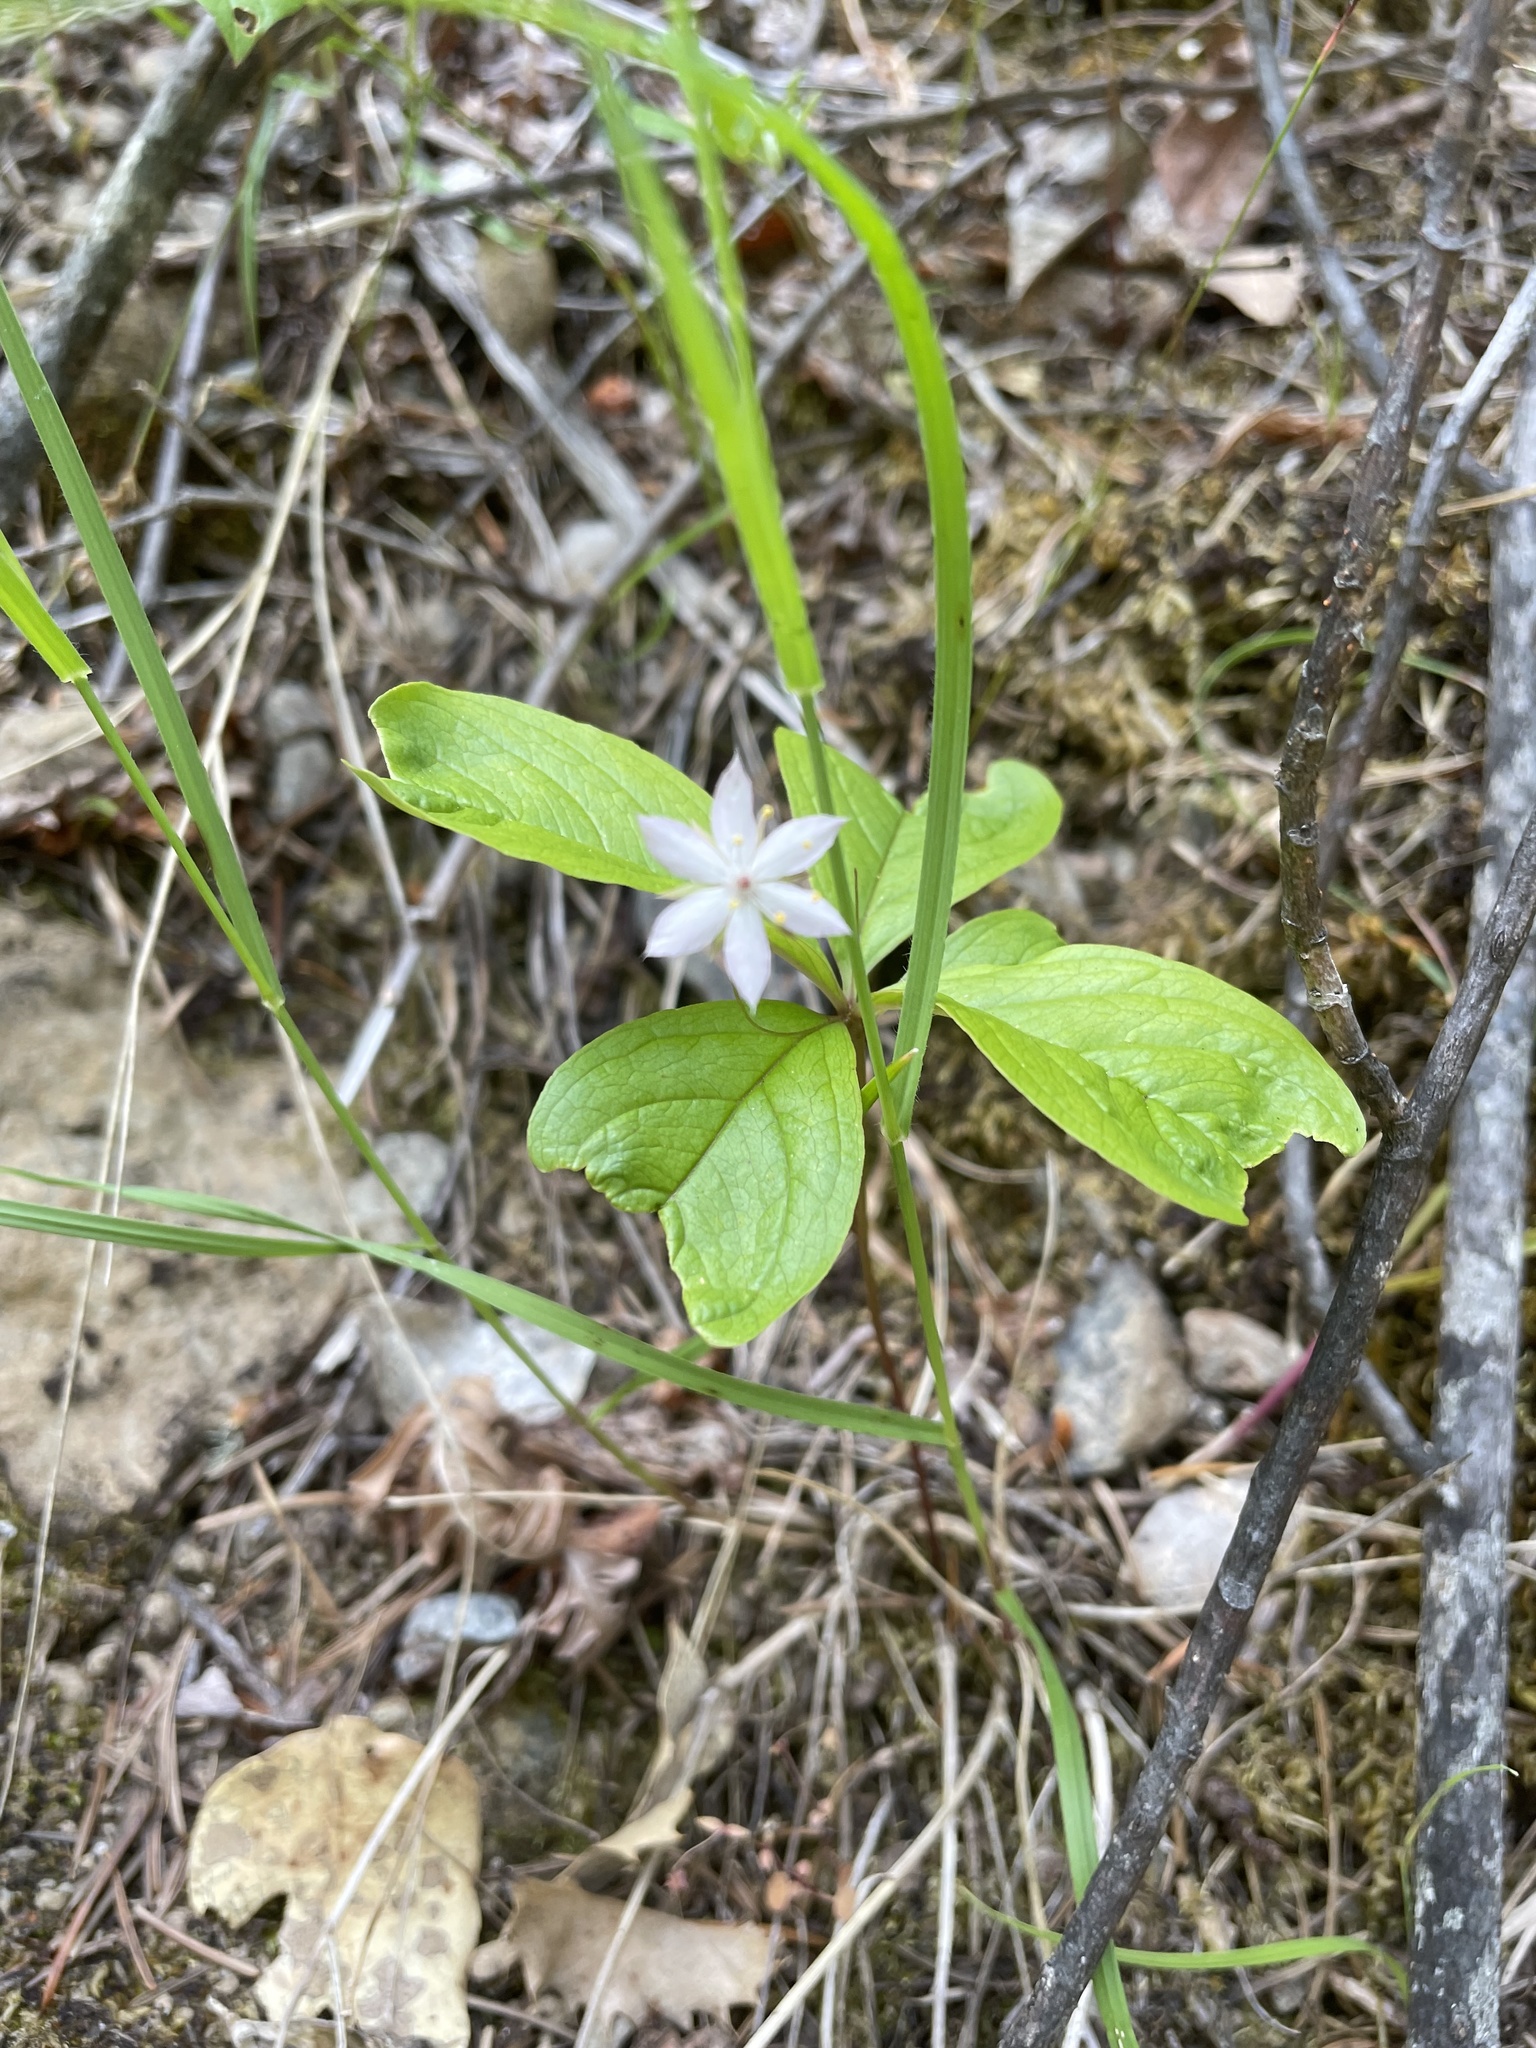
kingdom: Plantae
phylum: Tracheophyta
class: Magnoliopsida
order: Ericales
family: Primulaceae
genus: Lysimachia
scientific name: Lysimachia latifolia
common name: Pacific starflower
